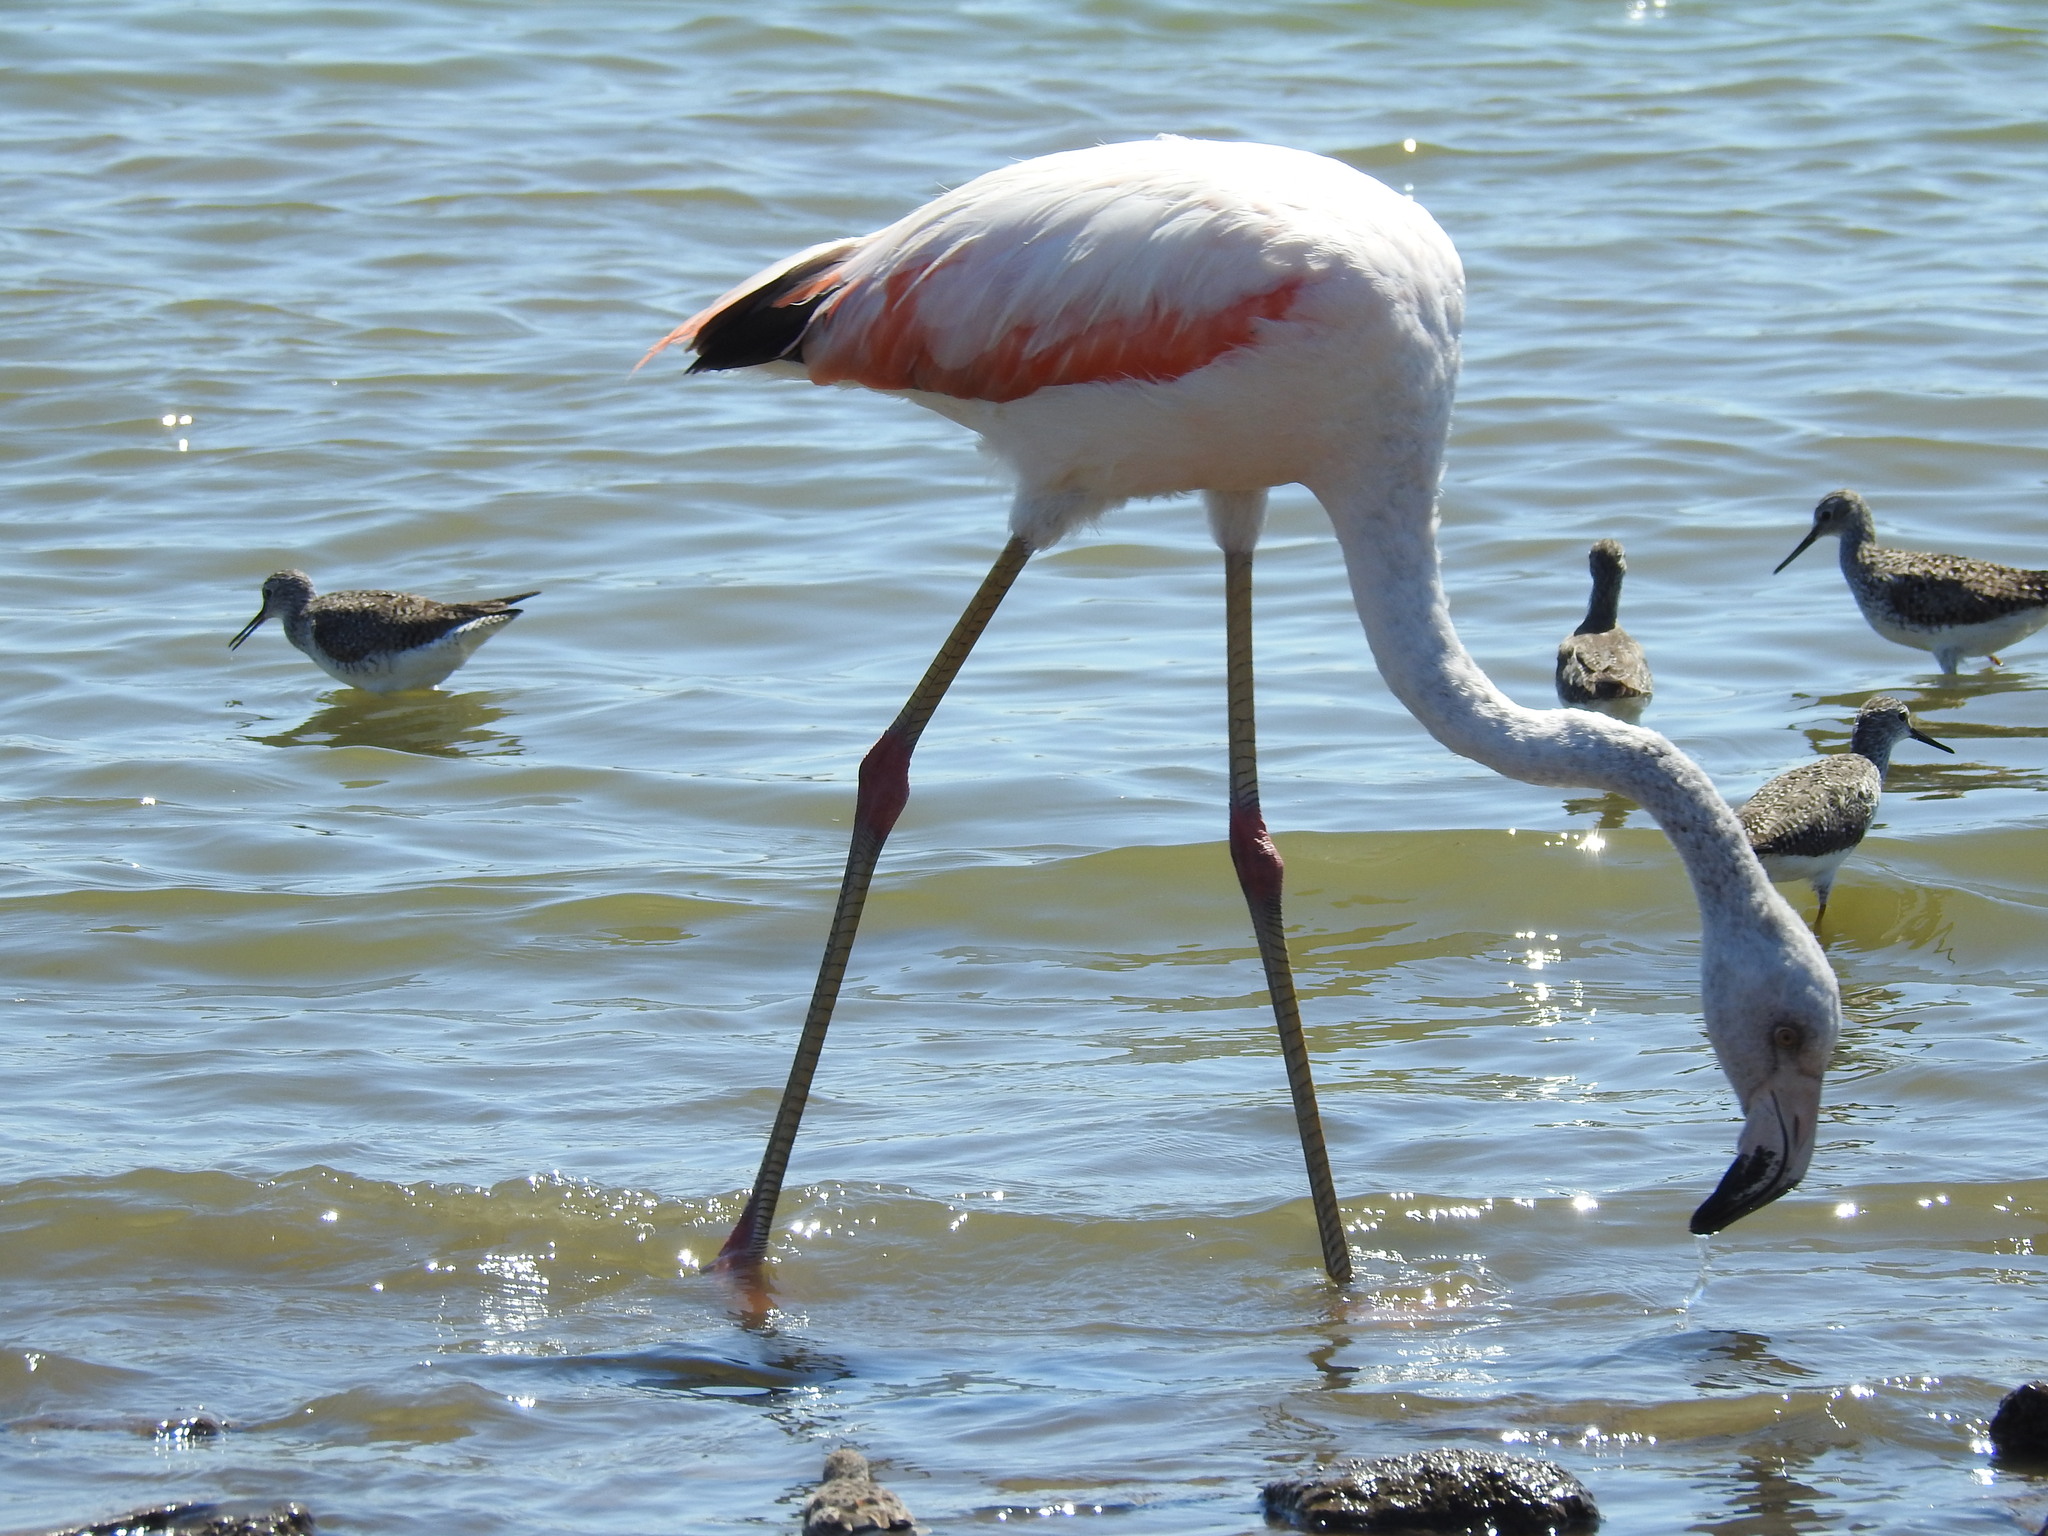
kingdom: Animalia
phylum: Chordata
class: Aves
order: Phoenicopteriformes
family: Phoenicopteridae
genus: Phoenicopterus
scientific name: Phoenicopterus chilensis
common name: Chilean flamingo
